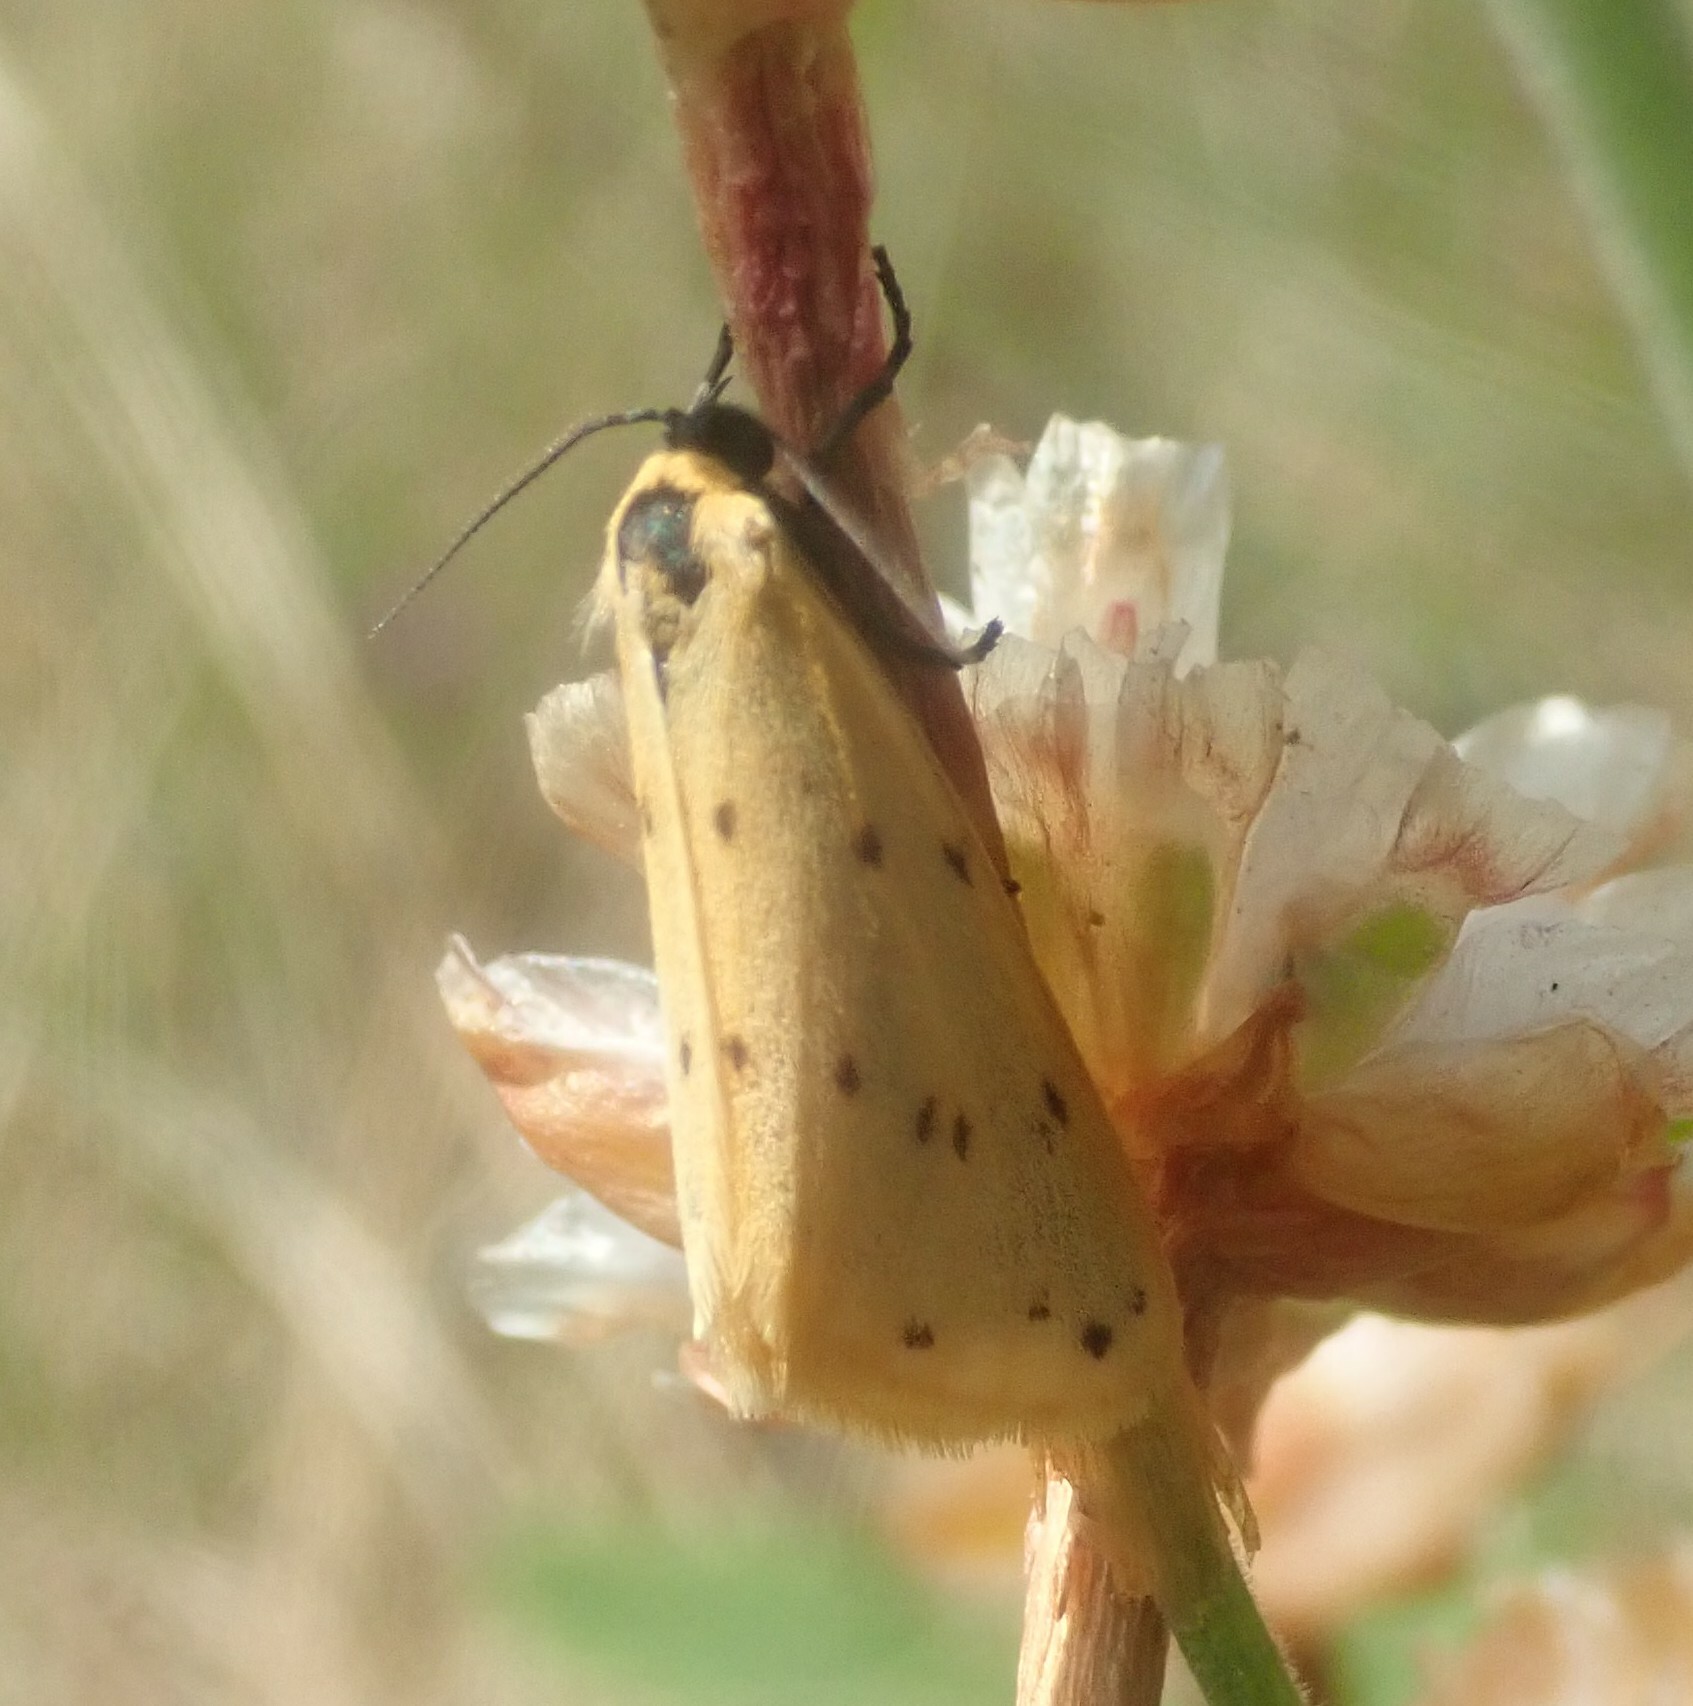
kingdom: Animalia
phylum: Arthropoda
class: Insecta
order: Lepidoptera
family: Erebidae
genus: Setina
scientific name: Setina irrorella
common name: Dew moth
